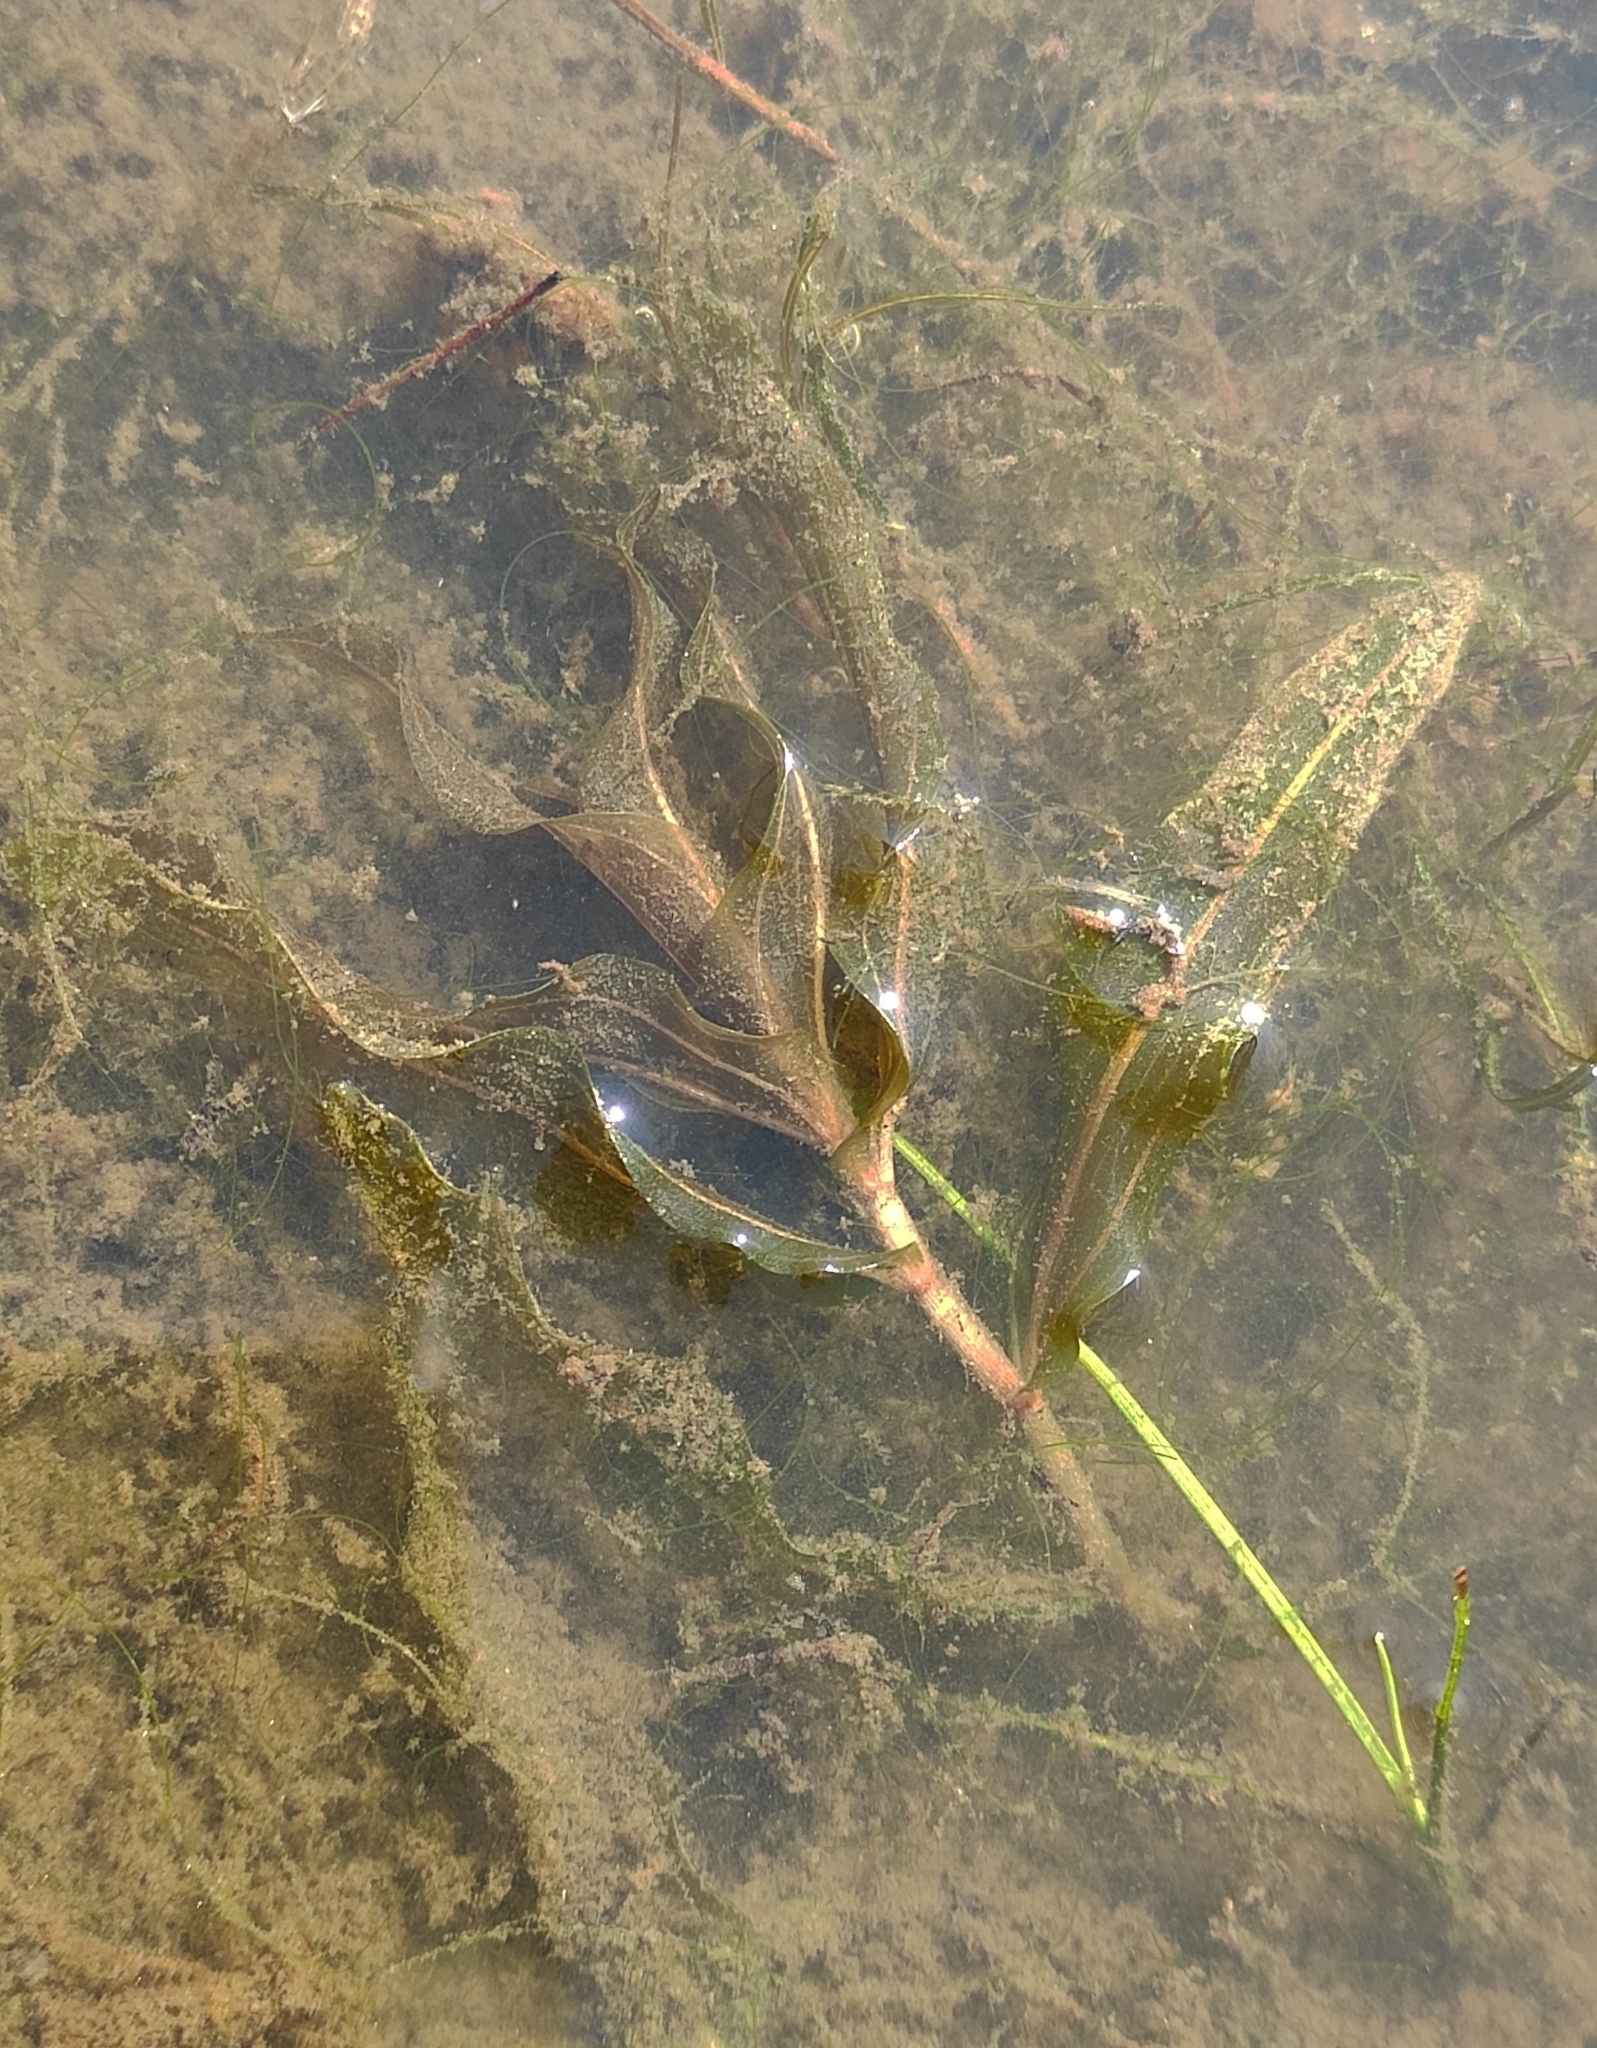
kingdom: Plantae
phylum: Tracheophyta
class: Liliopsida
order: Alismatales
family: Potamogetonaceae
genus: Potamogeton
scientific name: Potamogeton alpinus
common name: Red pondweed
